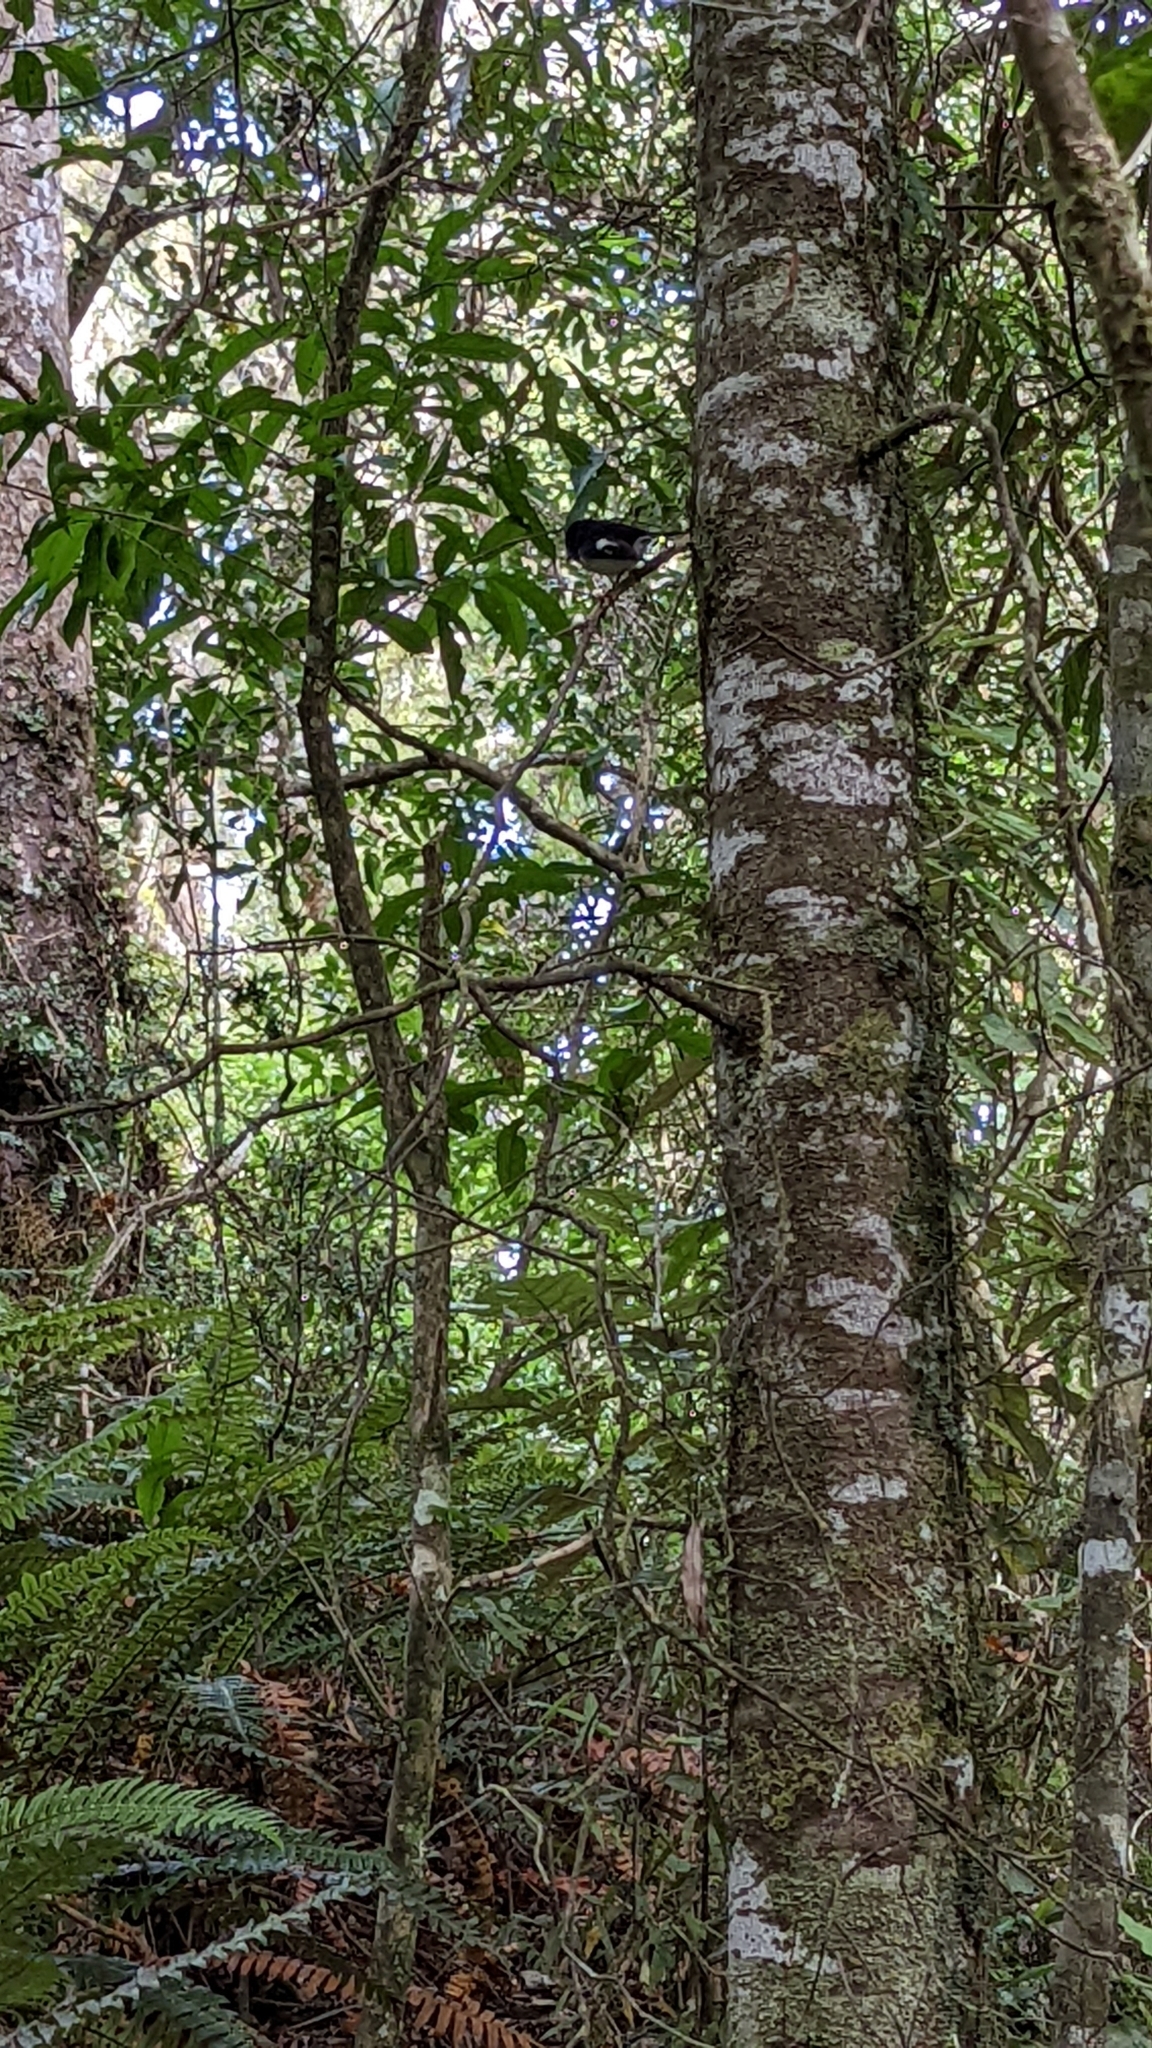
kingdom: Animalia
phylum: Chordata
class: Aves
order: Passeriformes
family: Petroicidae
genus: Petroica
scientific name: Petroica macrocephala
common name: Tomtit
